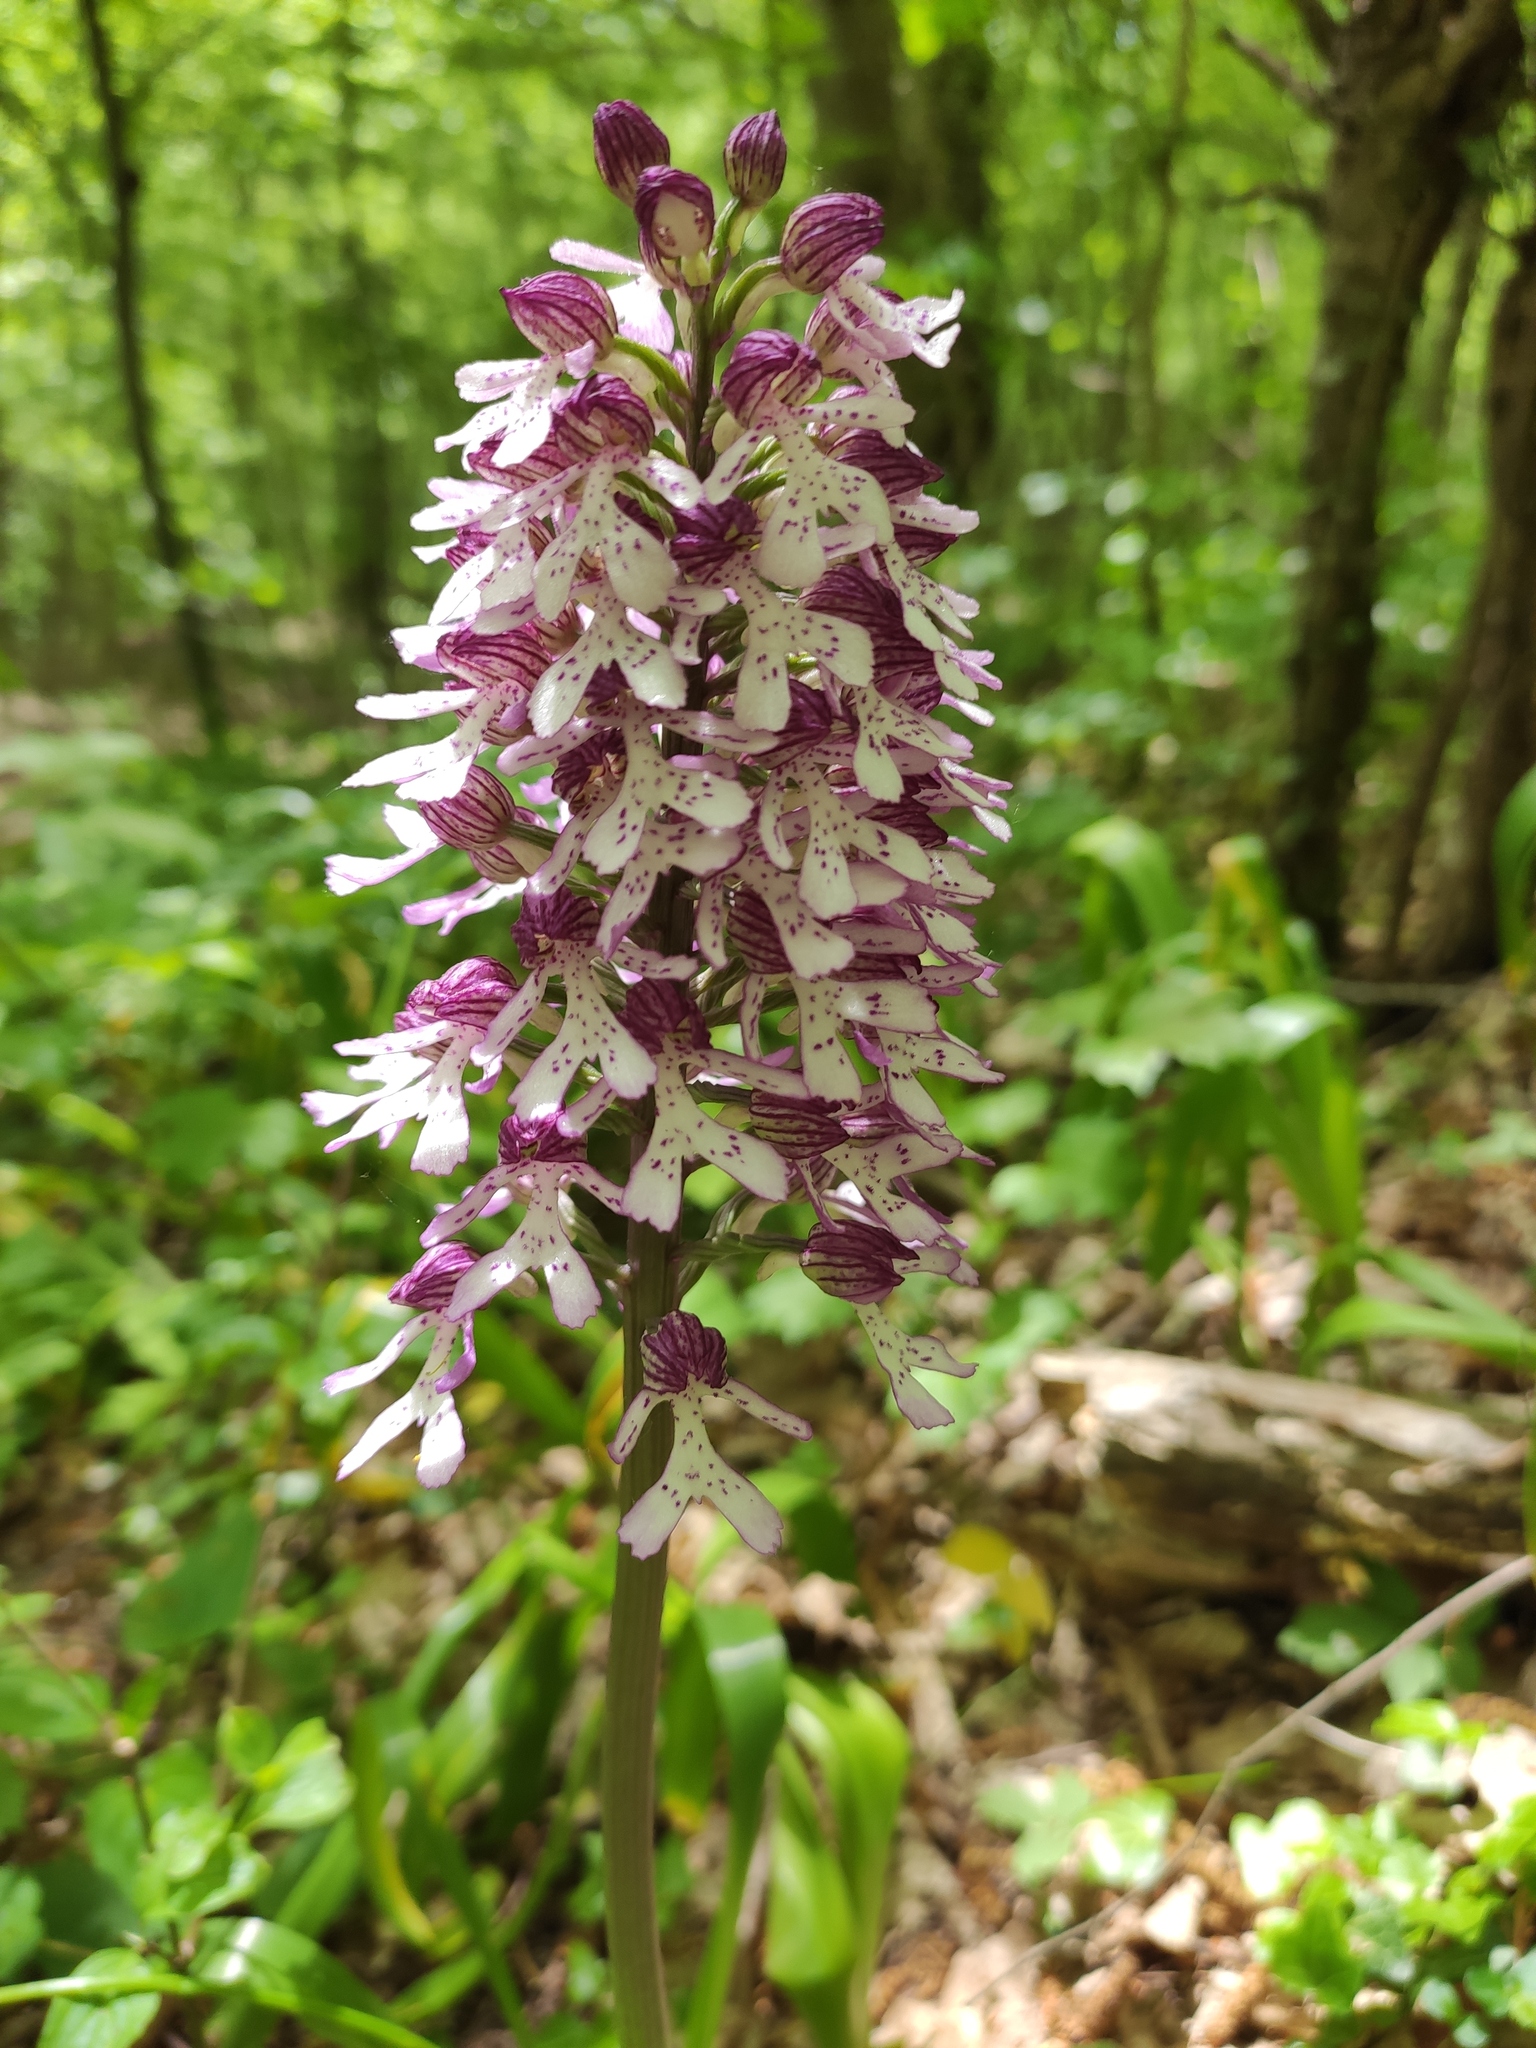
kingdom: Plantae
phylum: Tracheophyta
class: Liliopsida
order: Asparagales
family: Orchidaceae
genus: Orchis
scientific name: Orchis purpurea
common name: Lady orchid
